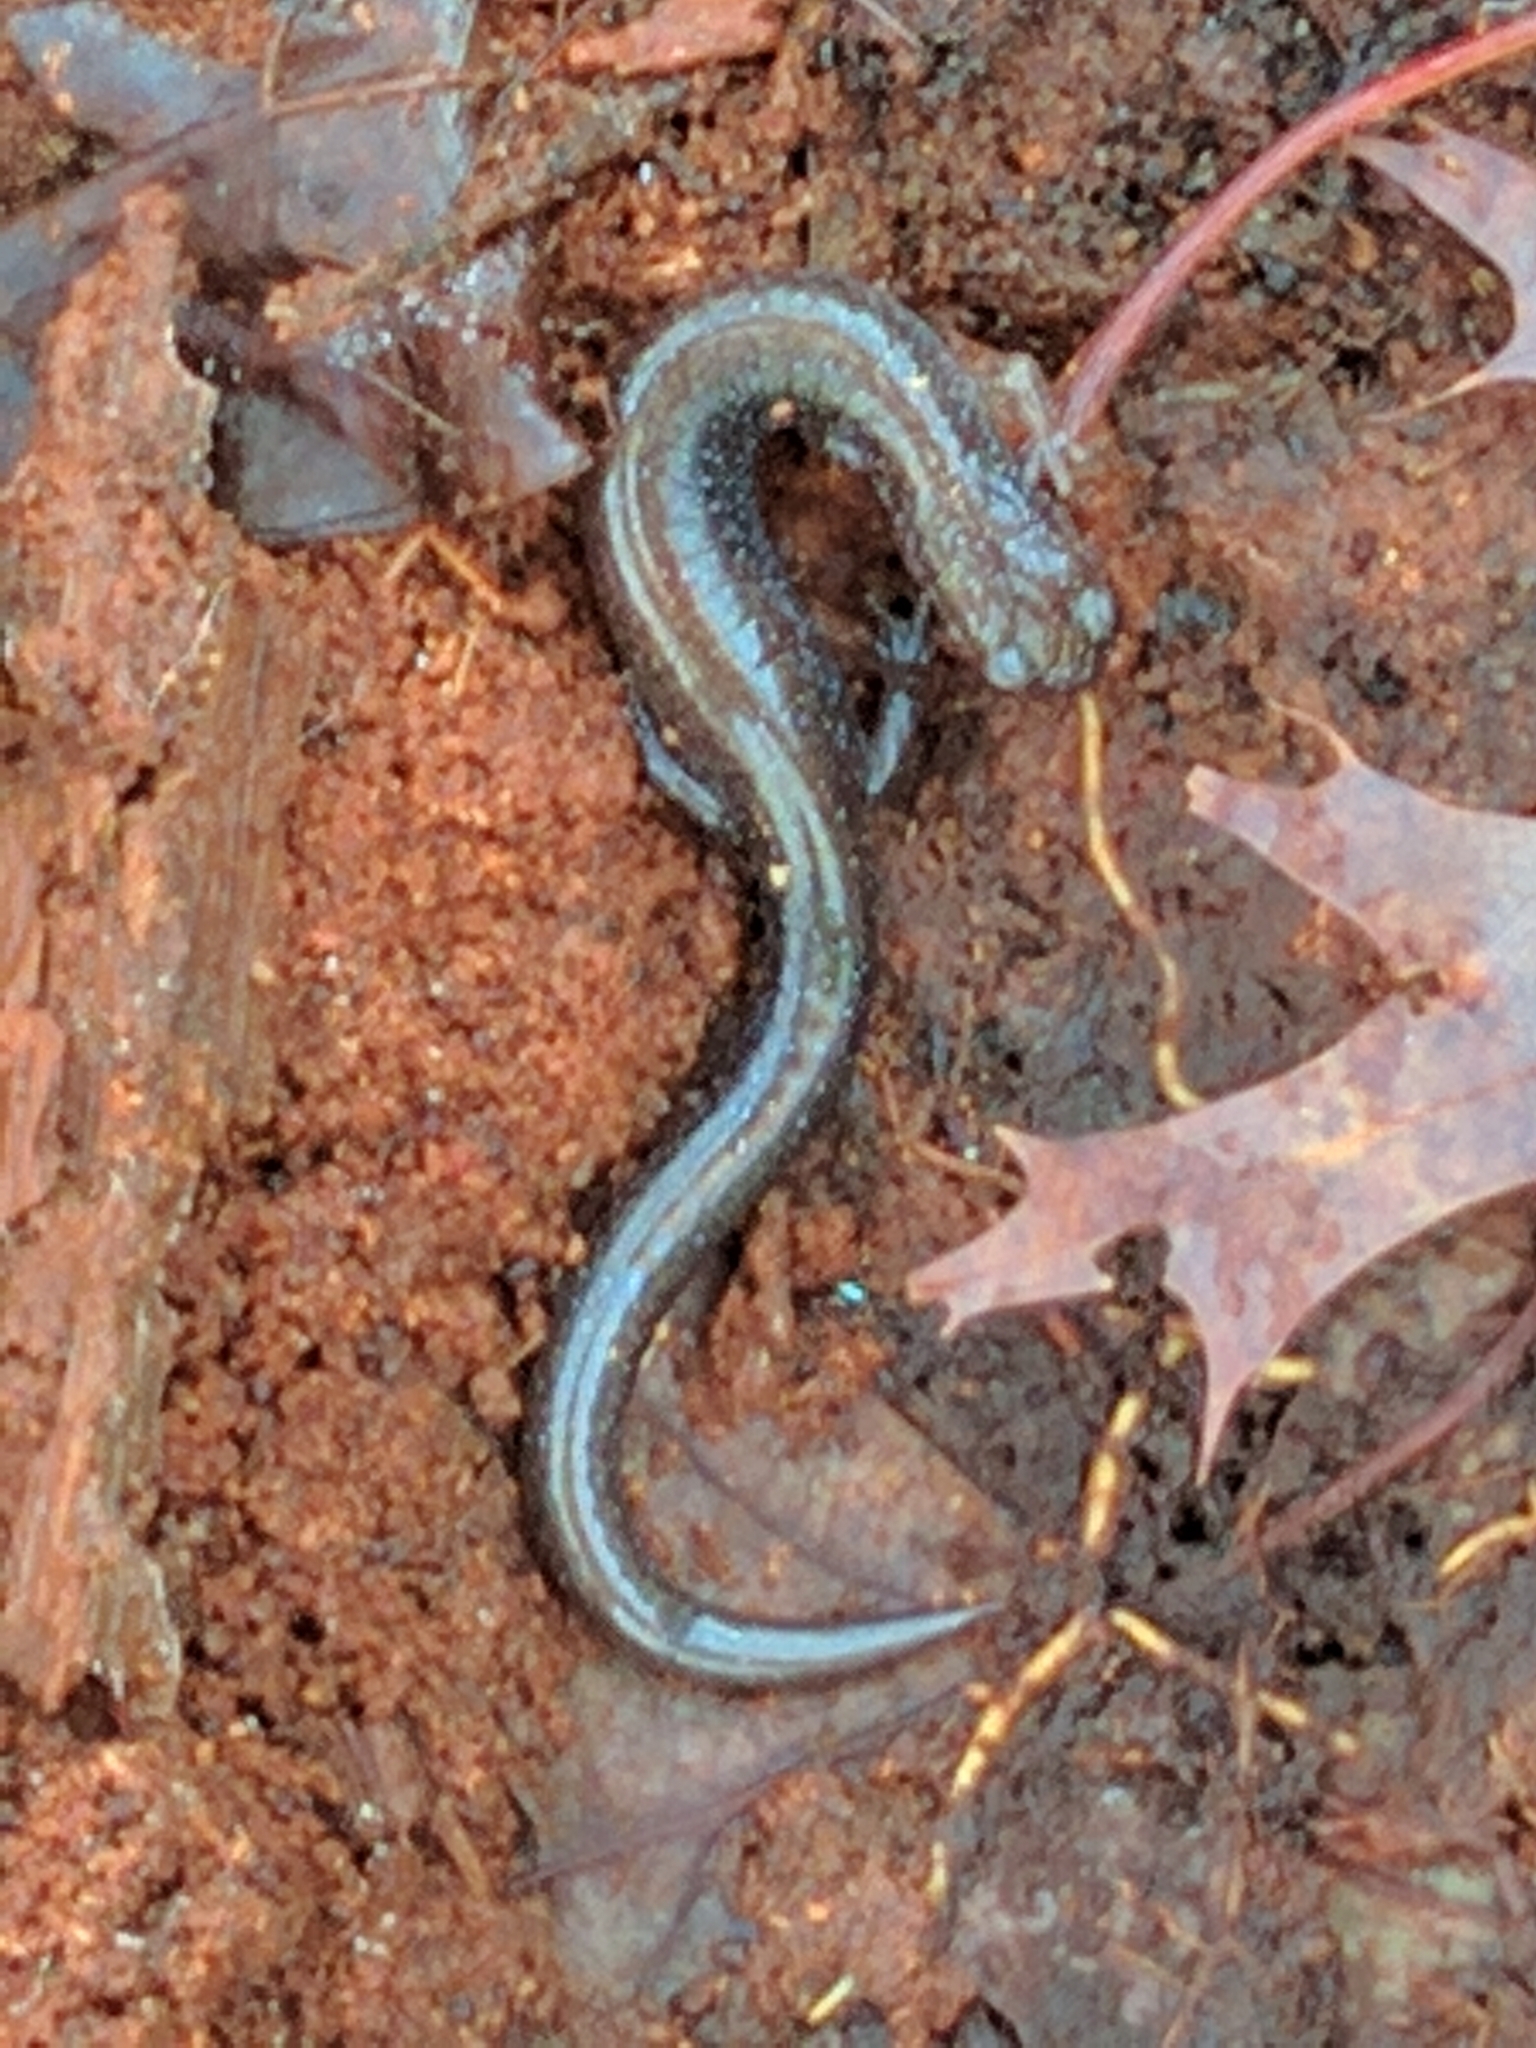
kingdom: Animalia
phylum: Chordata
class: Amphibia
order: Caudata
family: Plethodontidae
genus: Plethodon
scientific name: Plethodon cinereus
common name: Redback salamander
